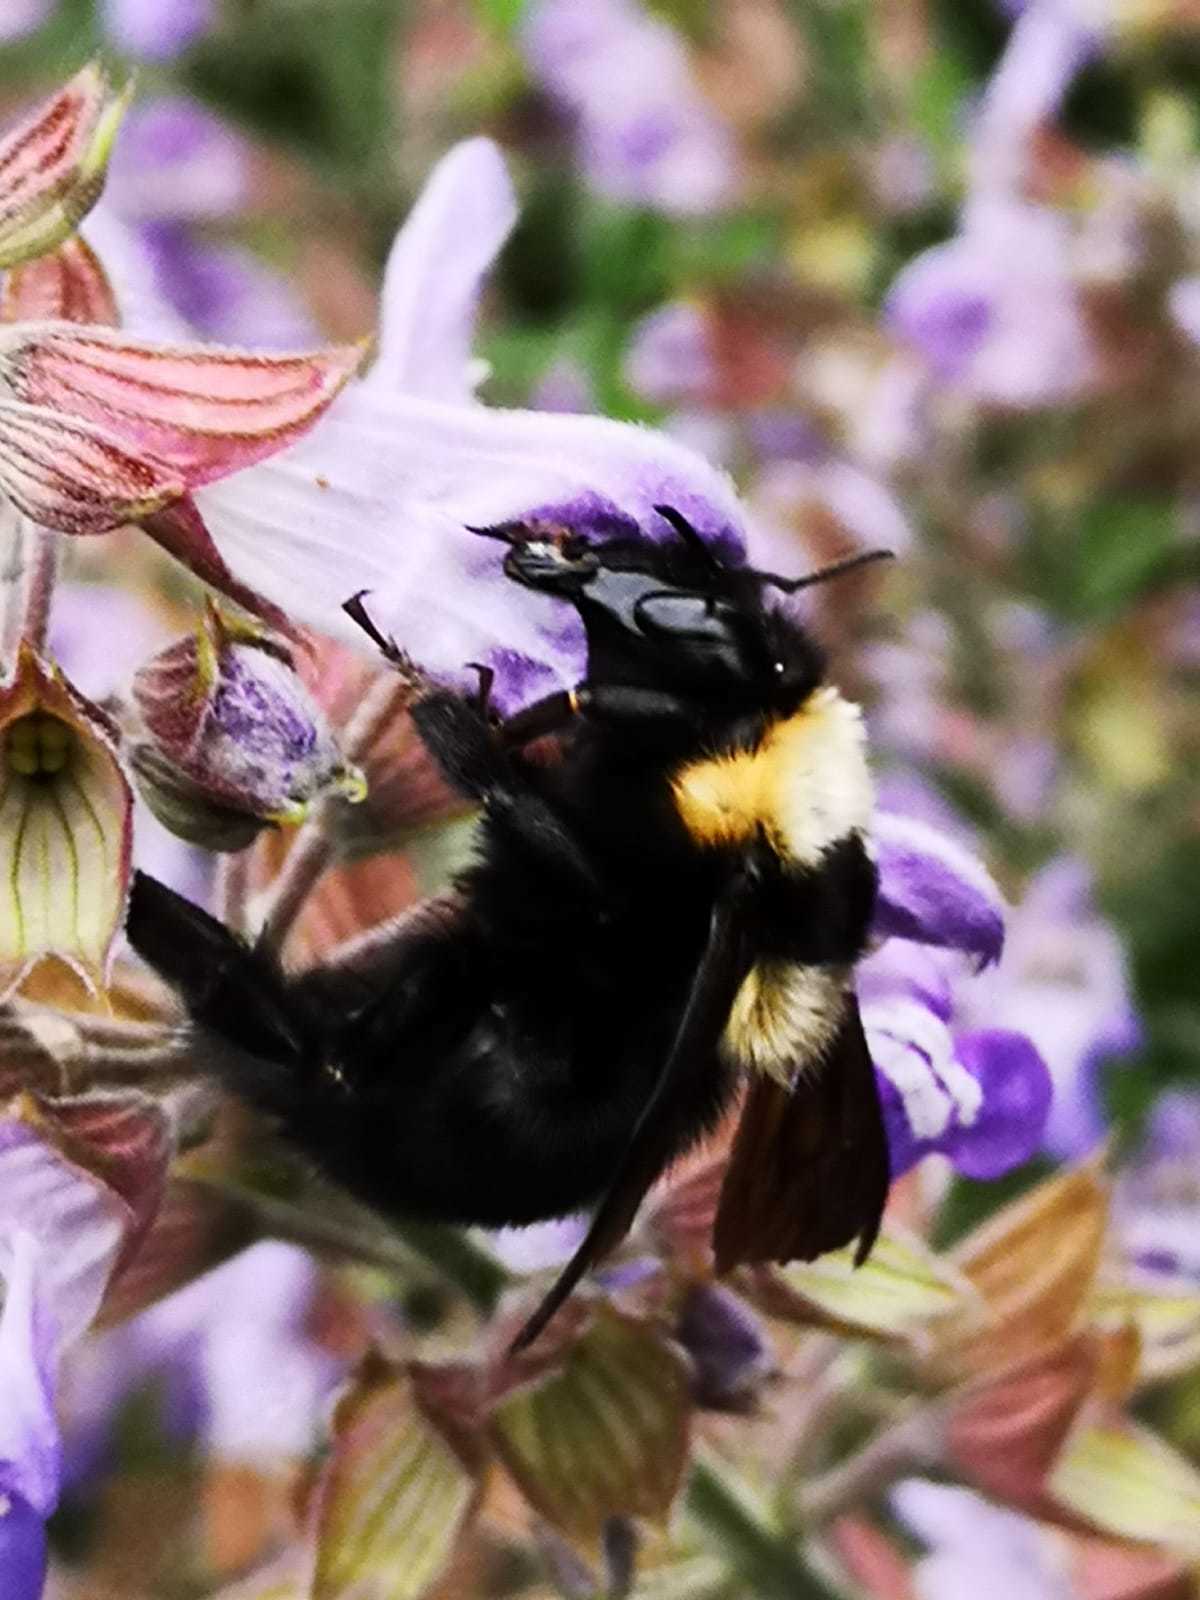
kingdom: Animalia
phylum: Arthropoda
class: Insecta
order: Hymenoptera
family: Apidae
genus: Bombus
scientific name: Bombus argillaceus
